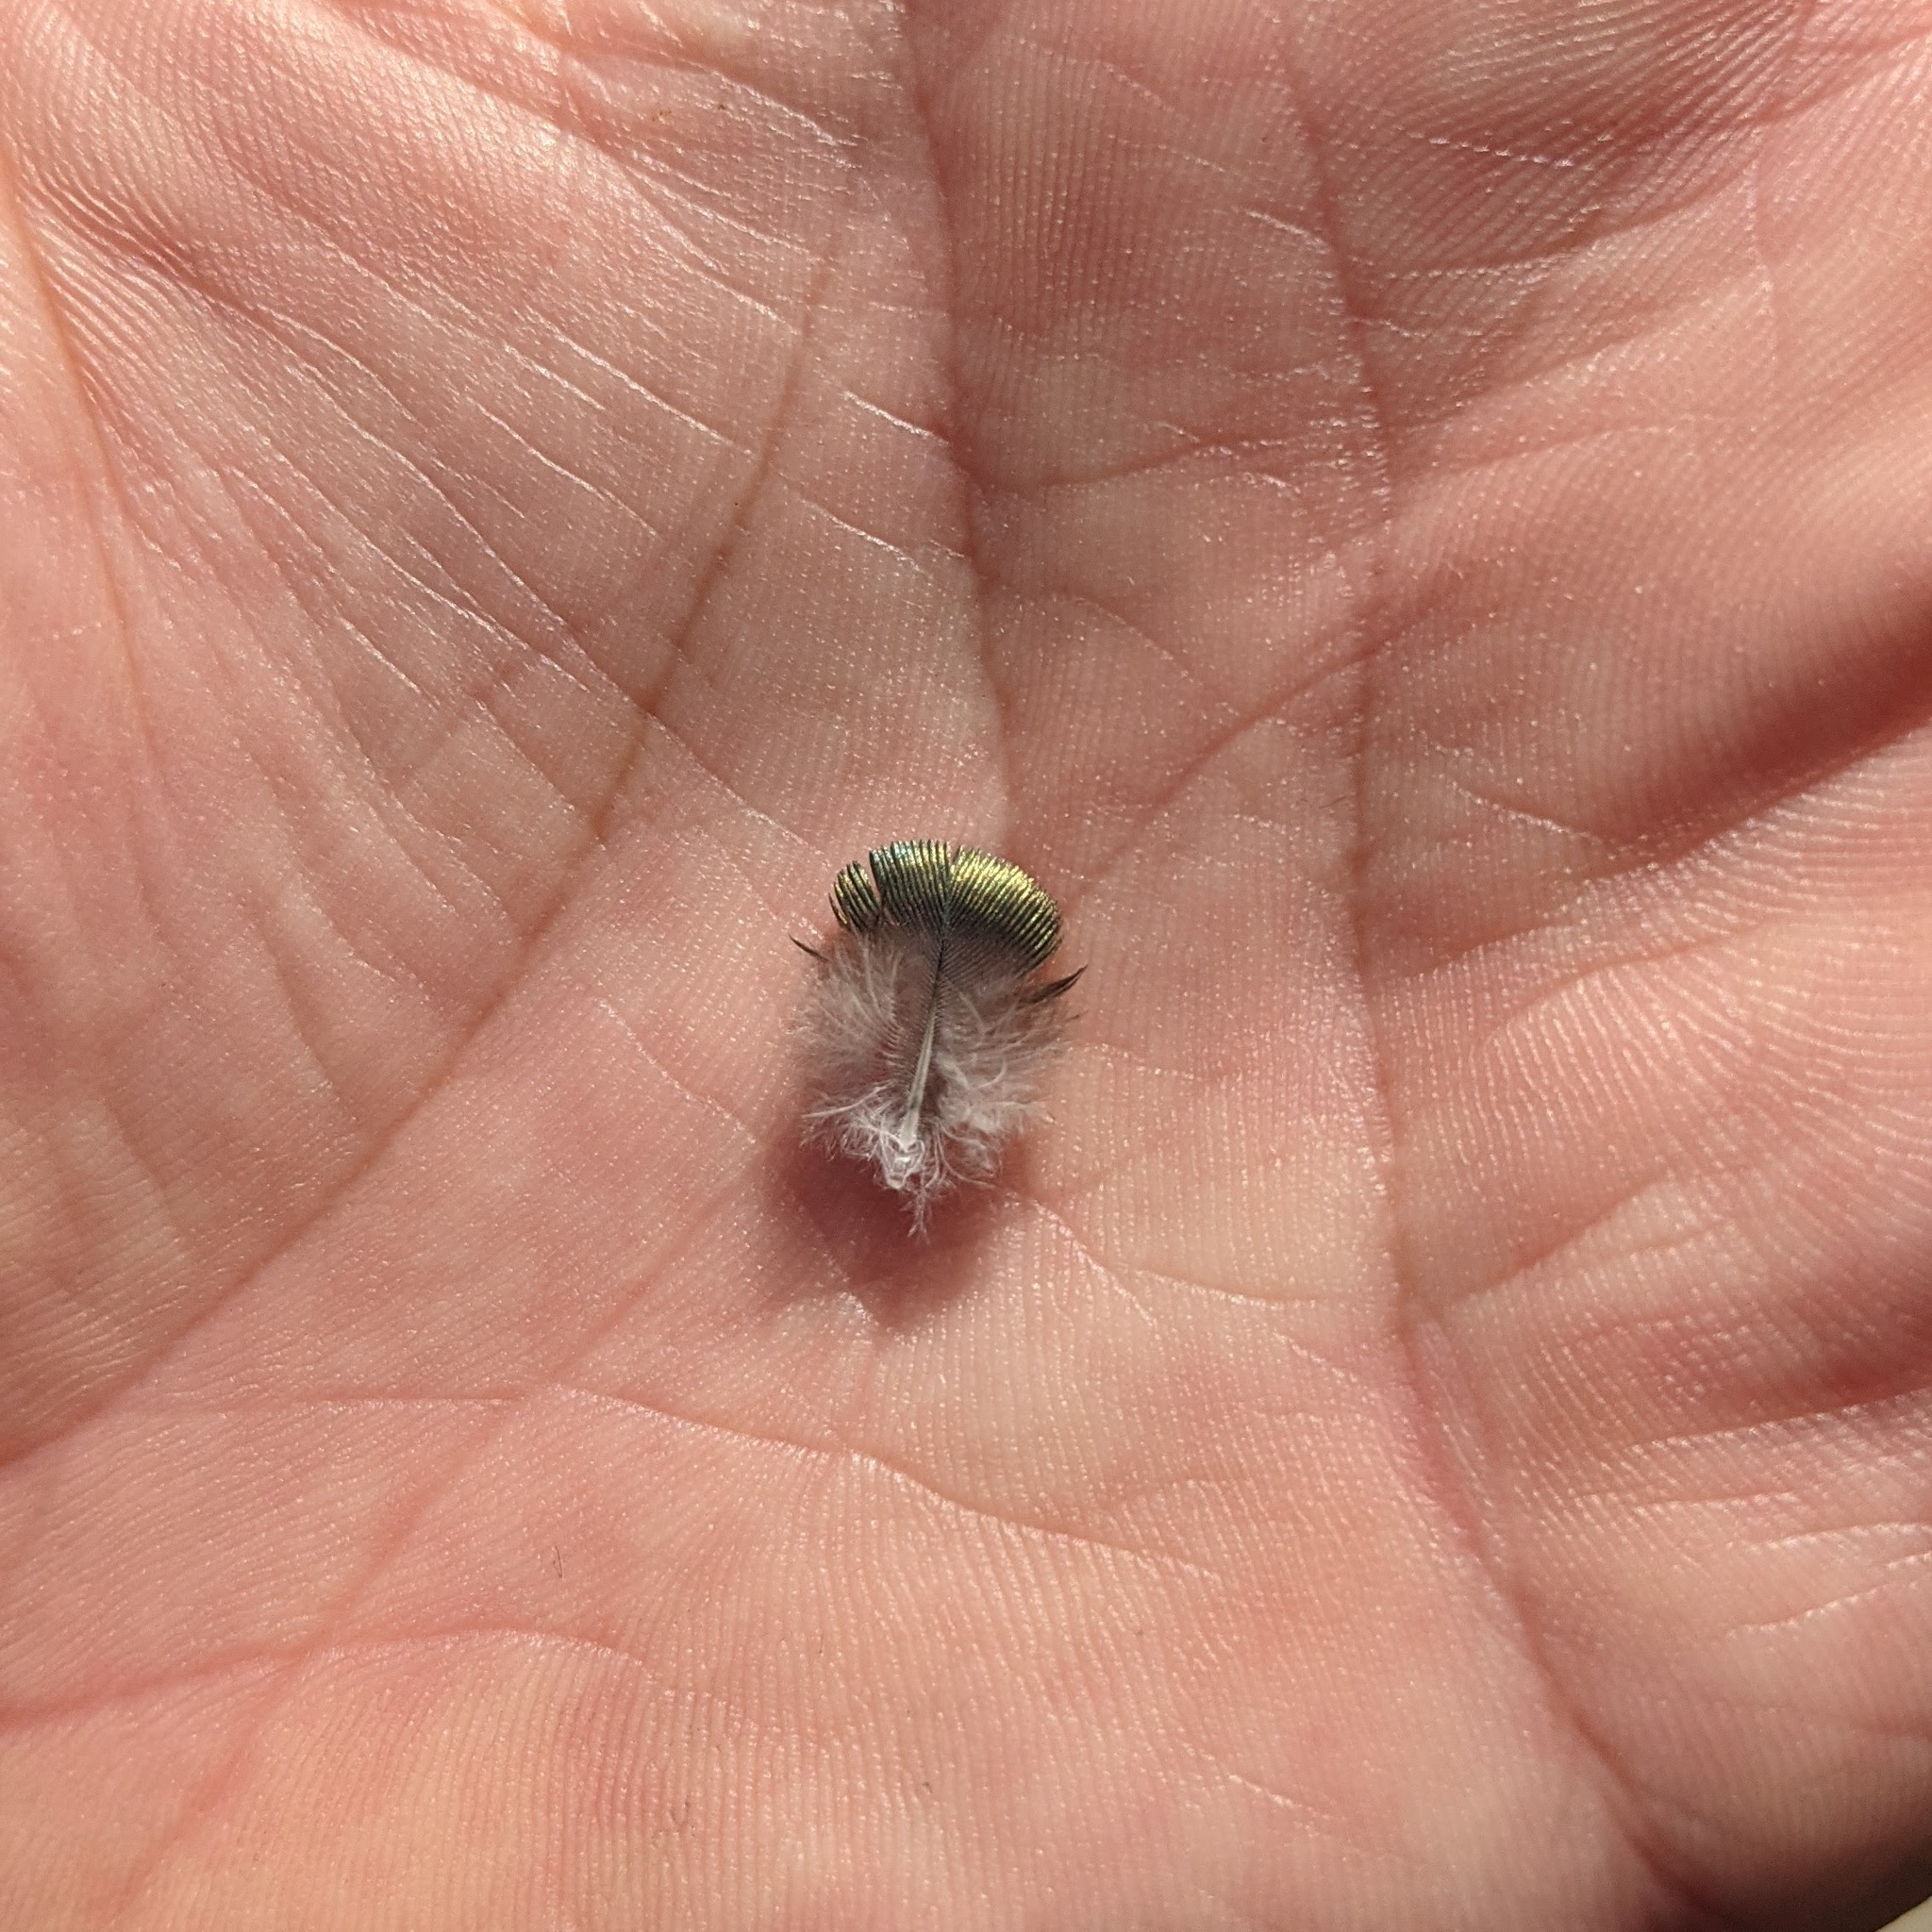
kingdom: Animalia
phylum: Chordata
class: Aves
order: Columbiformes
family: Columbidae
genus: Patagioenas
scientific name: Patagioenas fasciata
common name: Band-tailed pigeon
